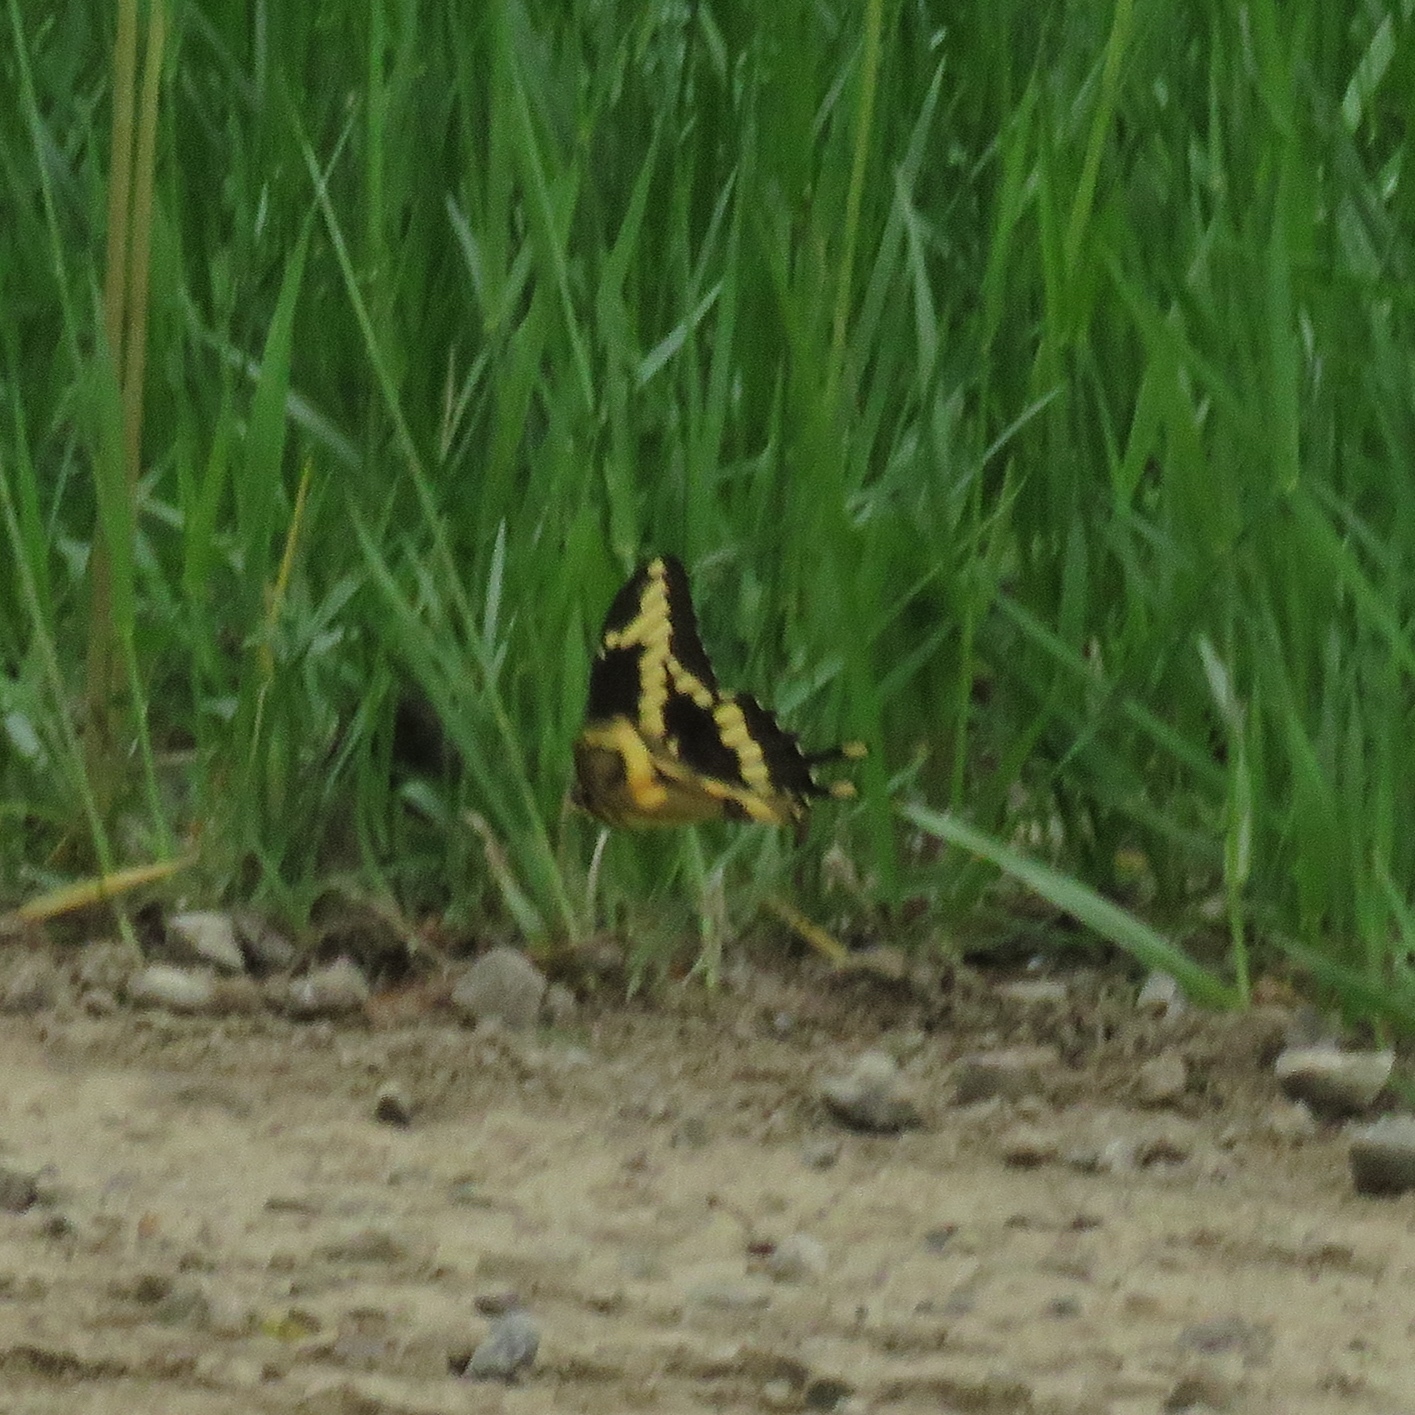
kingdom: Animalia
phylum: Arthropoda
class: Insecta
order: Lepidoptera
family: Papilionidae
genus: Papilio
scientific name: Papilio cresphontes
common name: Giant swallowtail
